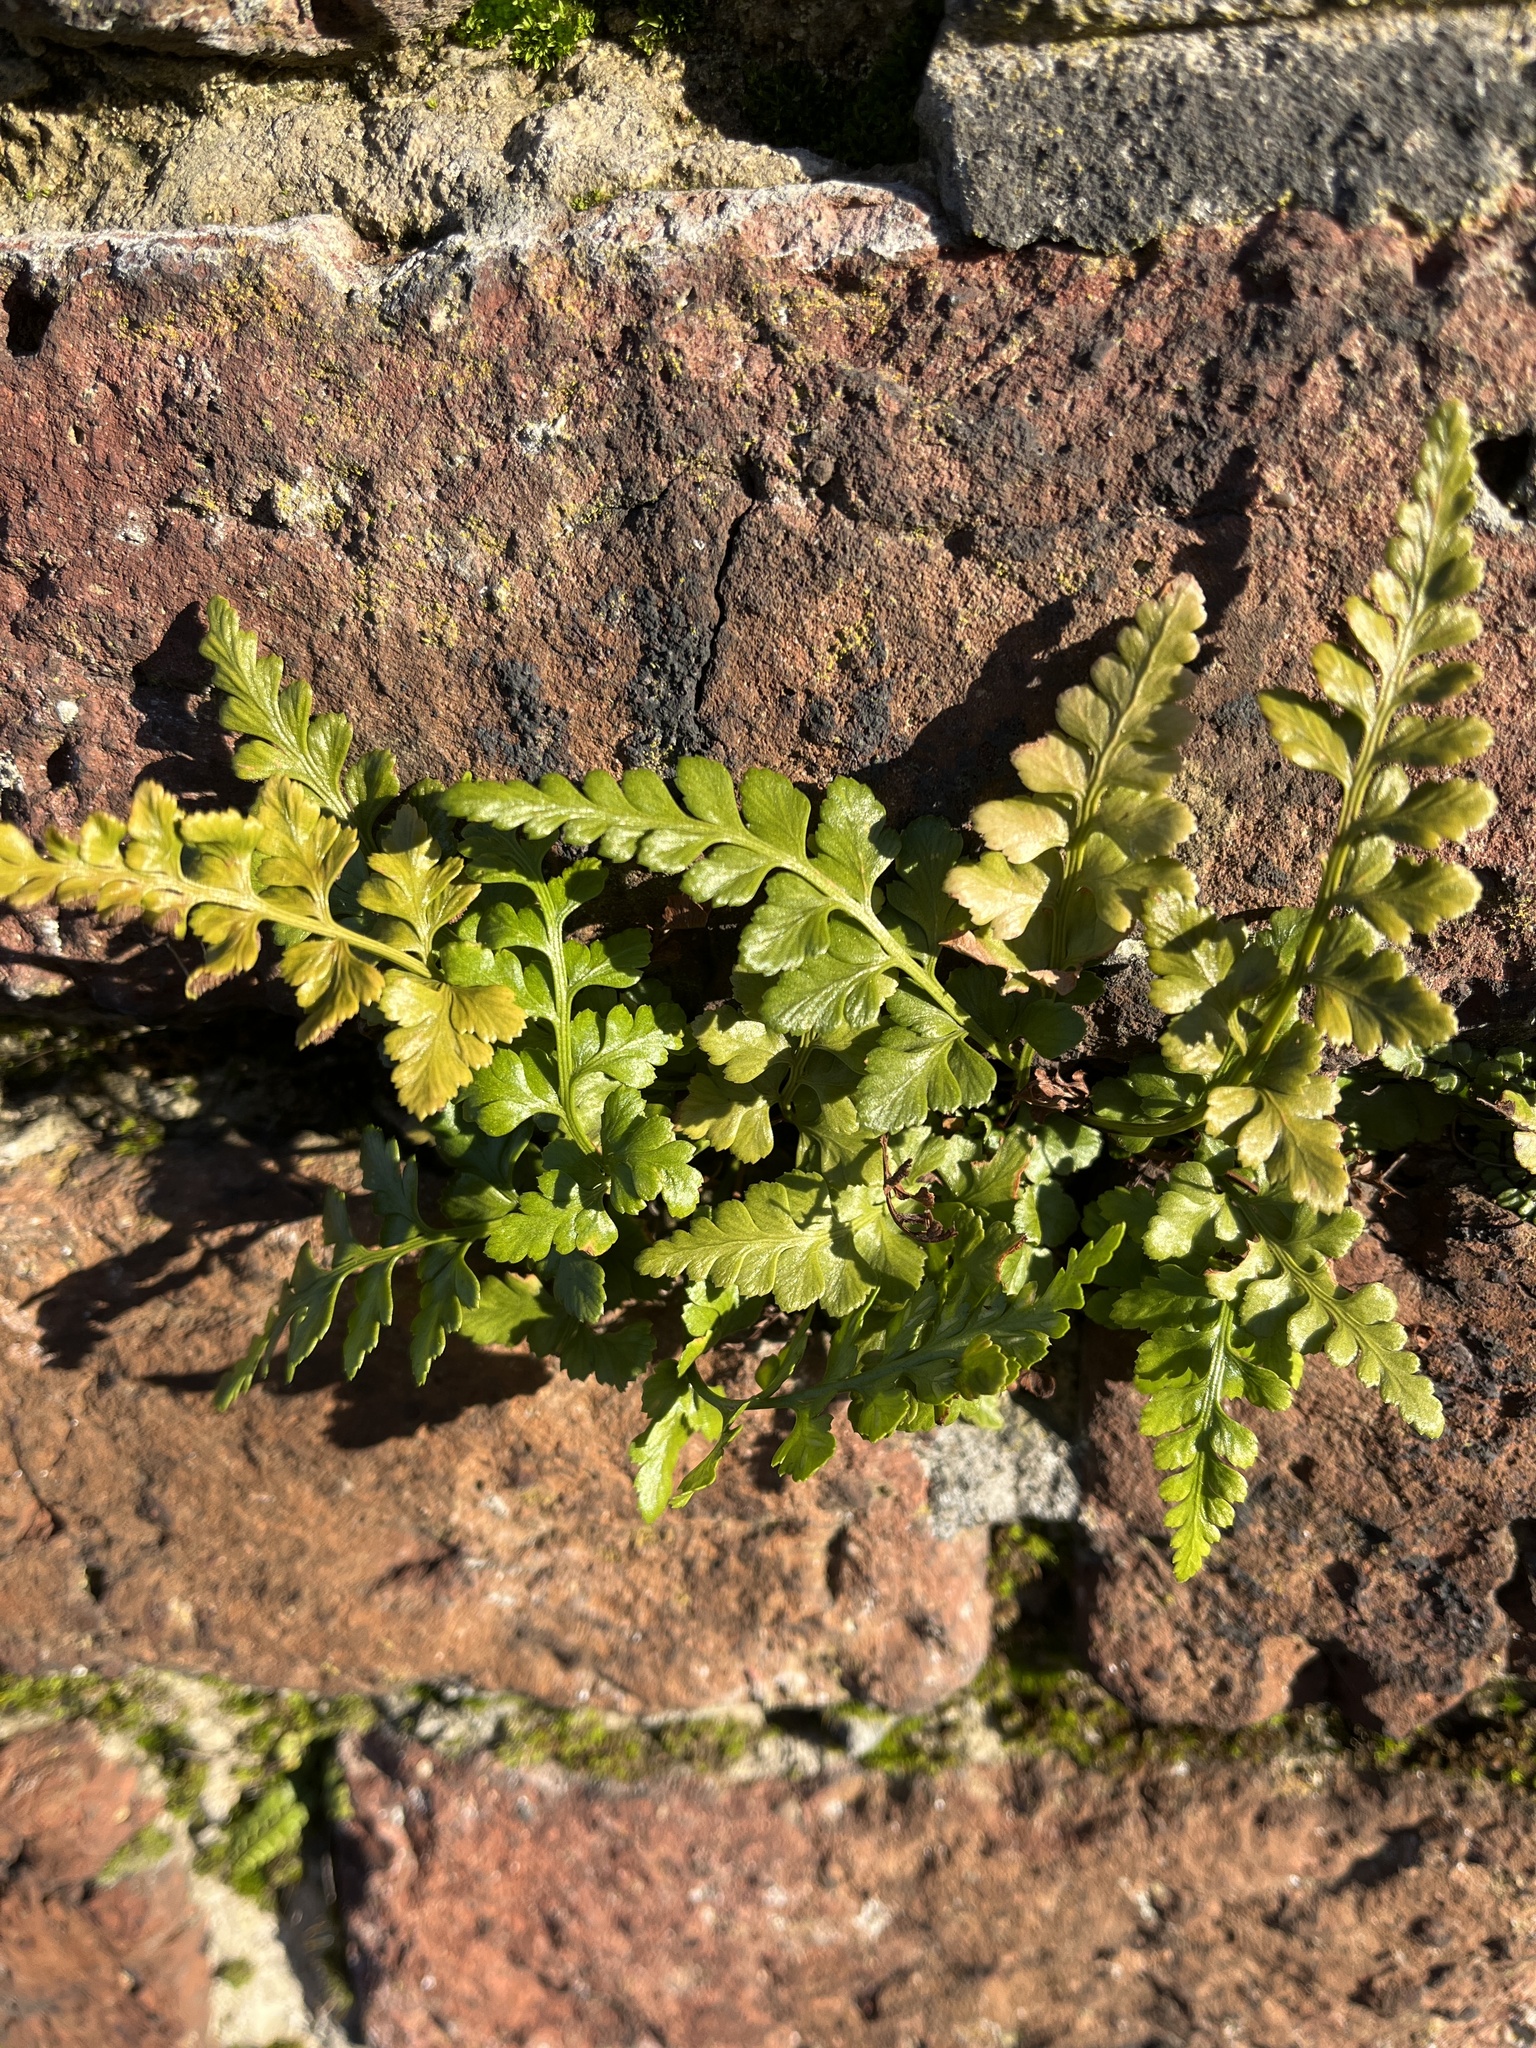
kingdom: Plantae
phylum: Tracheophyta
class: Polypodiopsida
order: Polypodiales
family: Aspleniaceae
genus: Asplenium
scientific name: Asplenium adiantum-nigrum
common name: Black spleenwort
